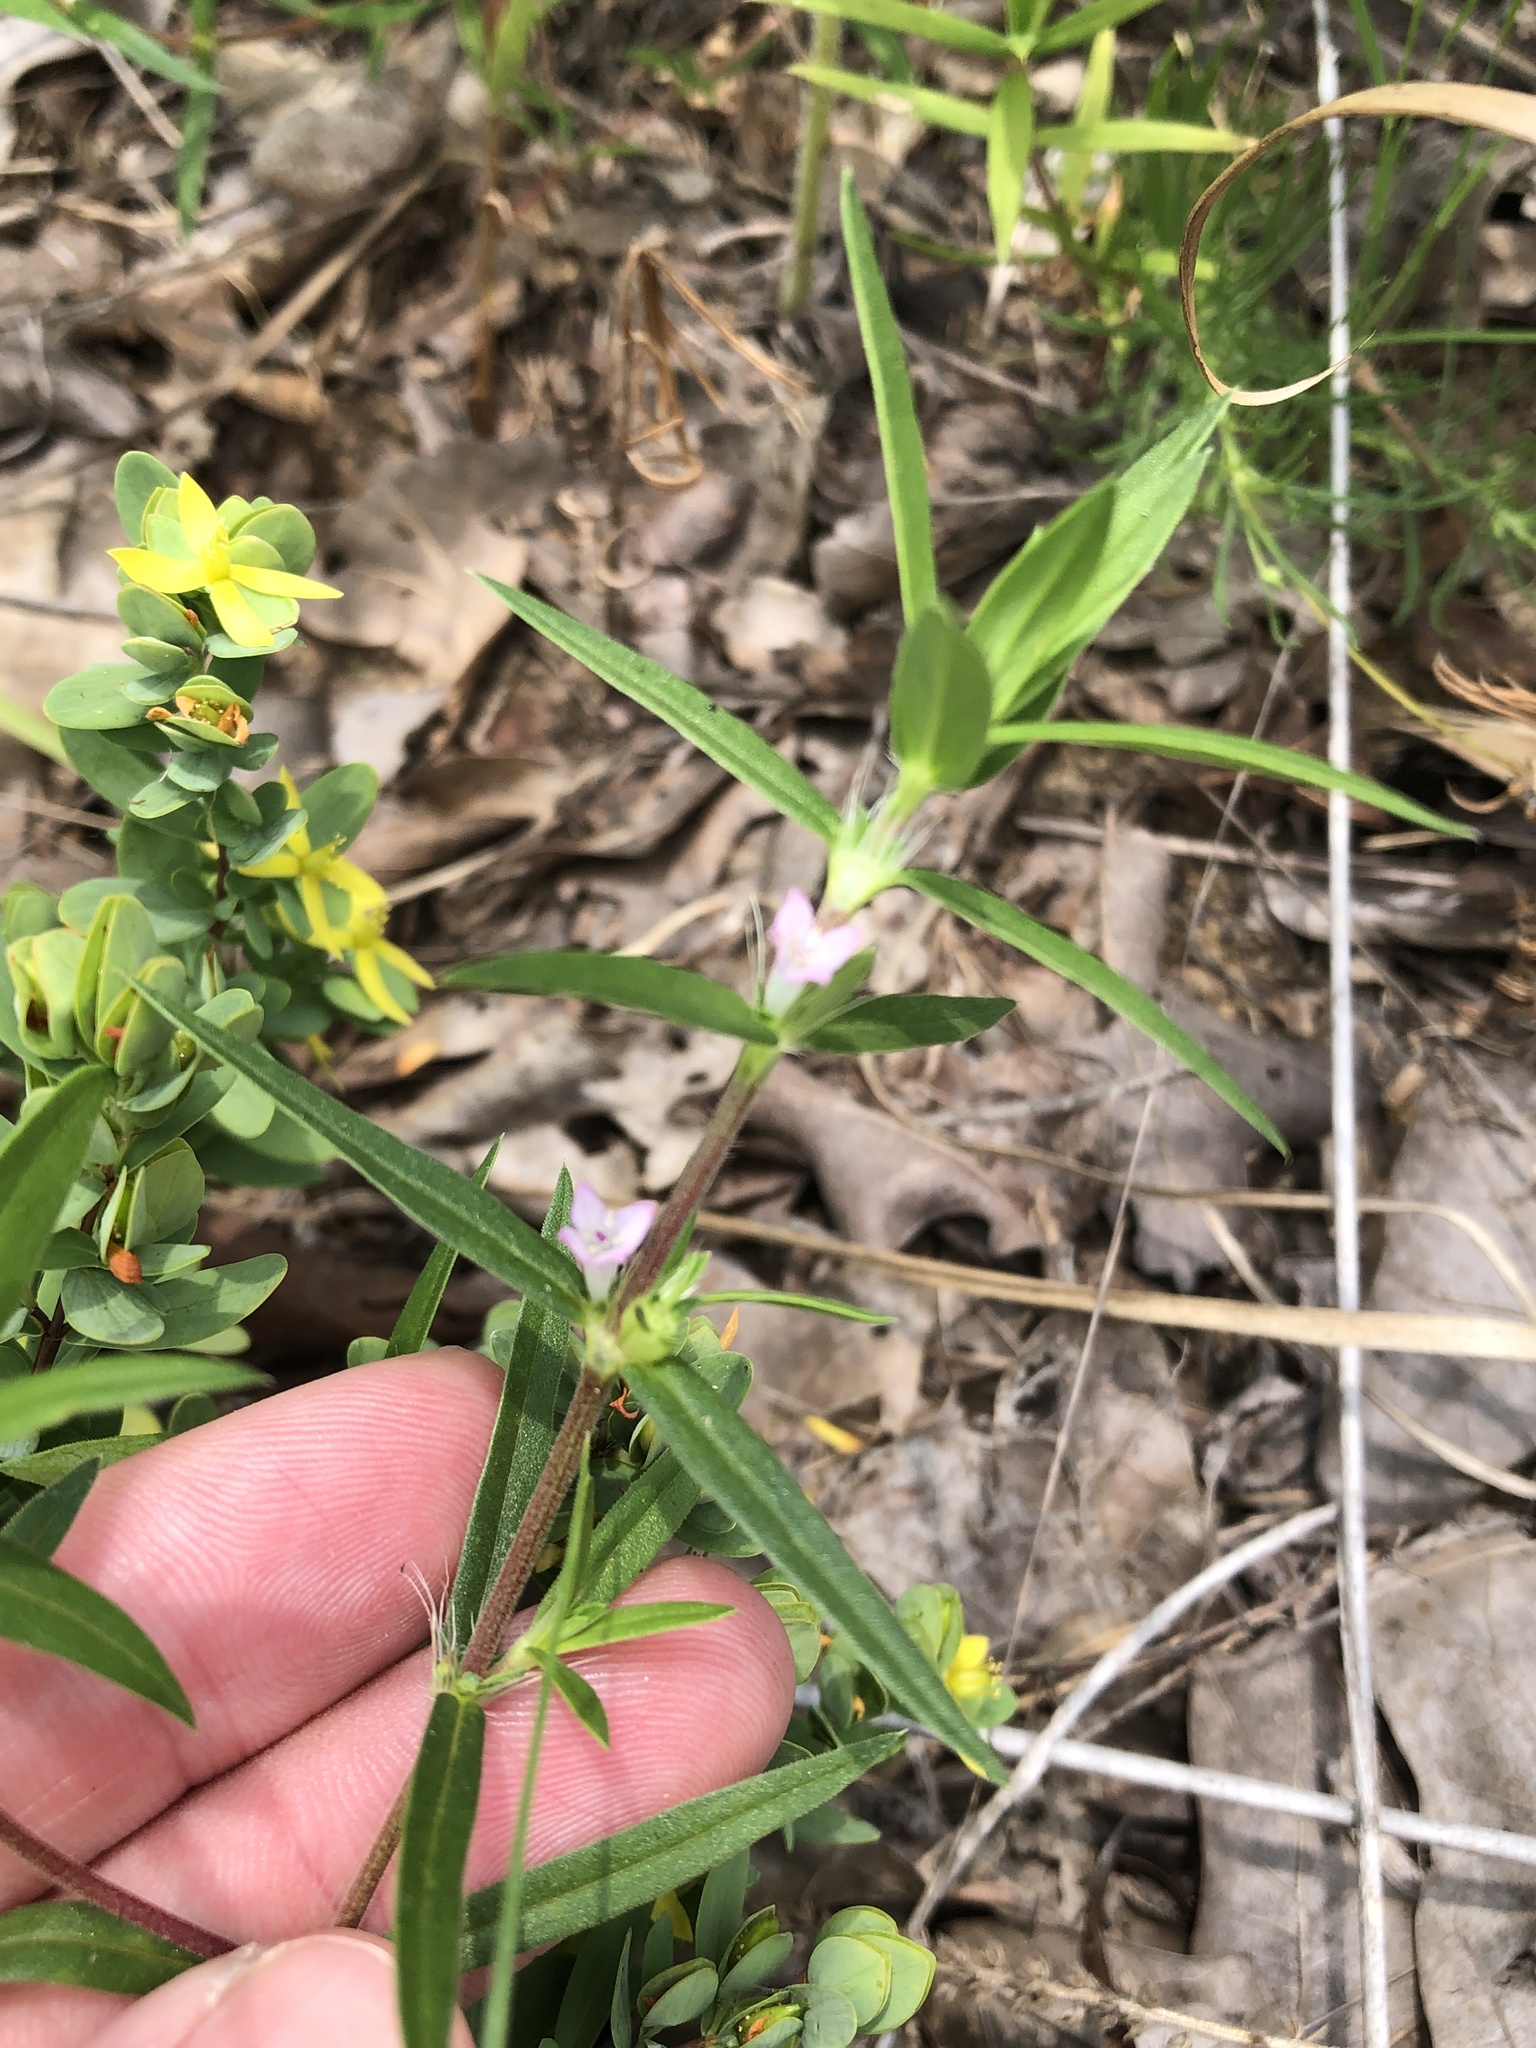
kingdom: Plantae
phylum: Tracheophyta
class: Magnoliopsida
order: Gentianales
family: Rubiaceae
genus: Hexasepalum
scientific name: Hexasepalum teres
